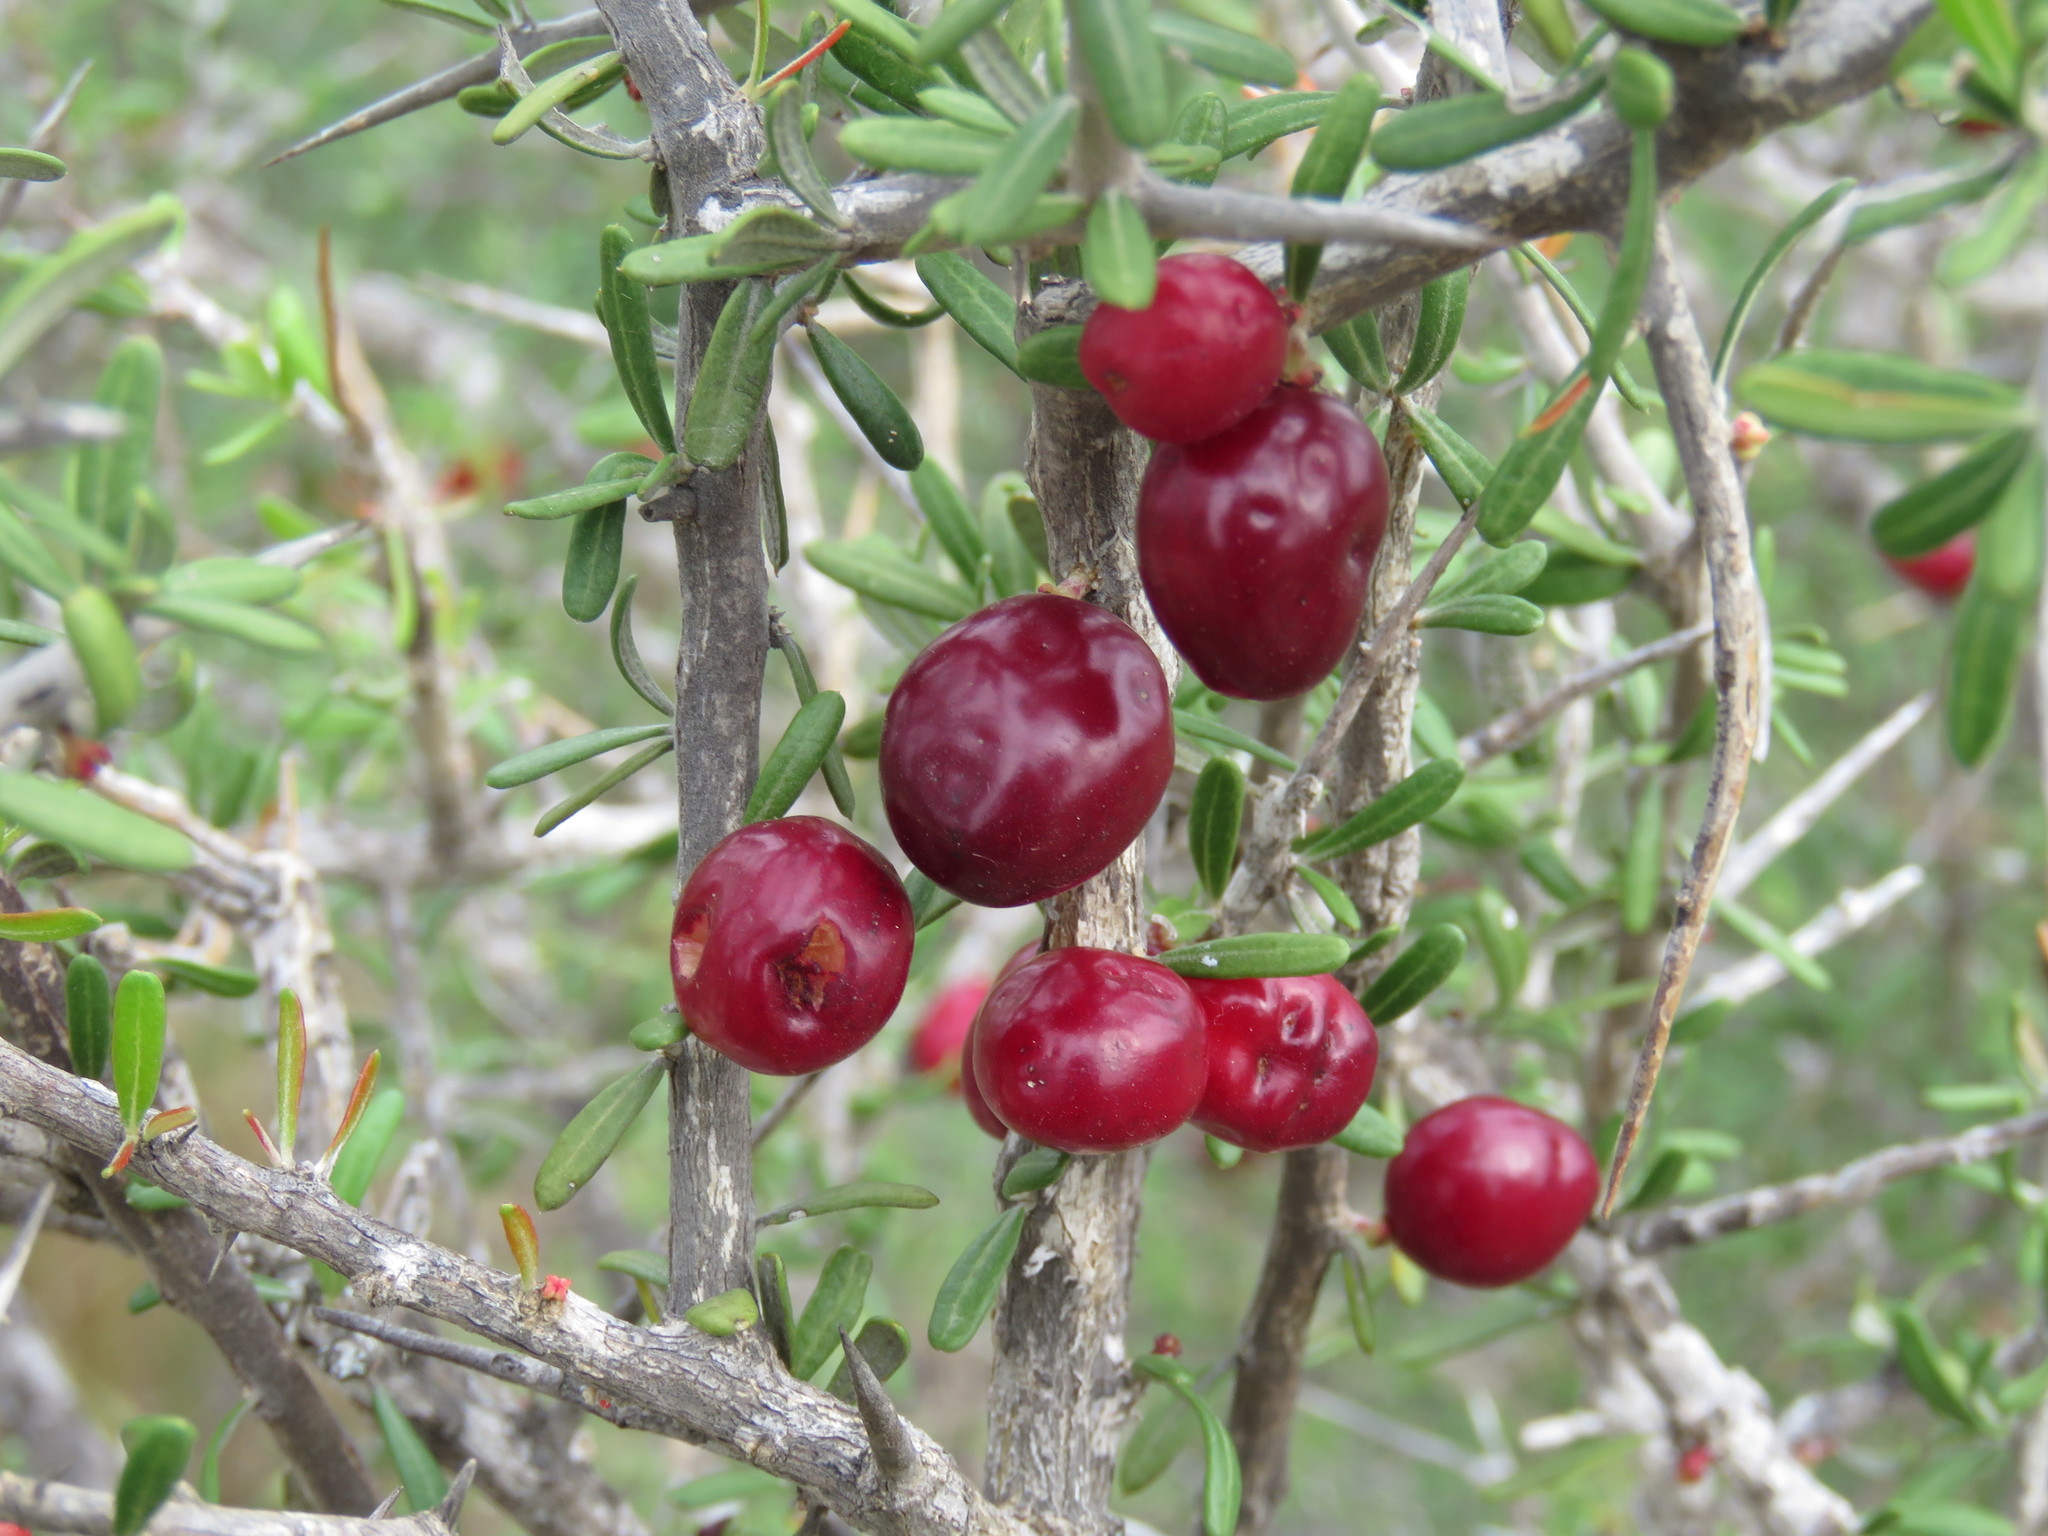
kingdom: Plantae
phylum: Tracheophyta
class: Magnoliopsida
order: Sapindales
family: Simaroubaceae
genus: Castela
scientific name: Castela tortuosa
